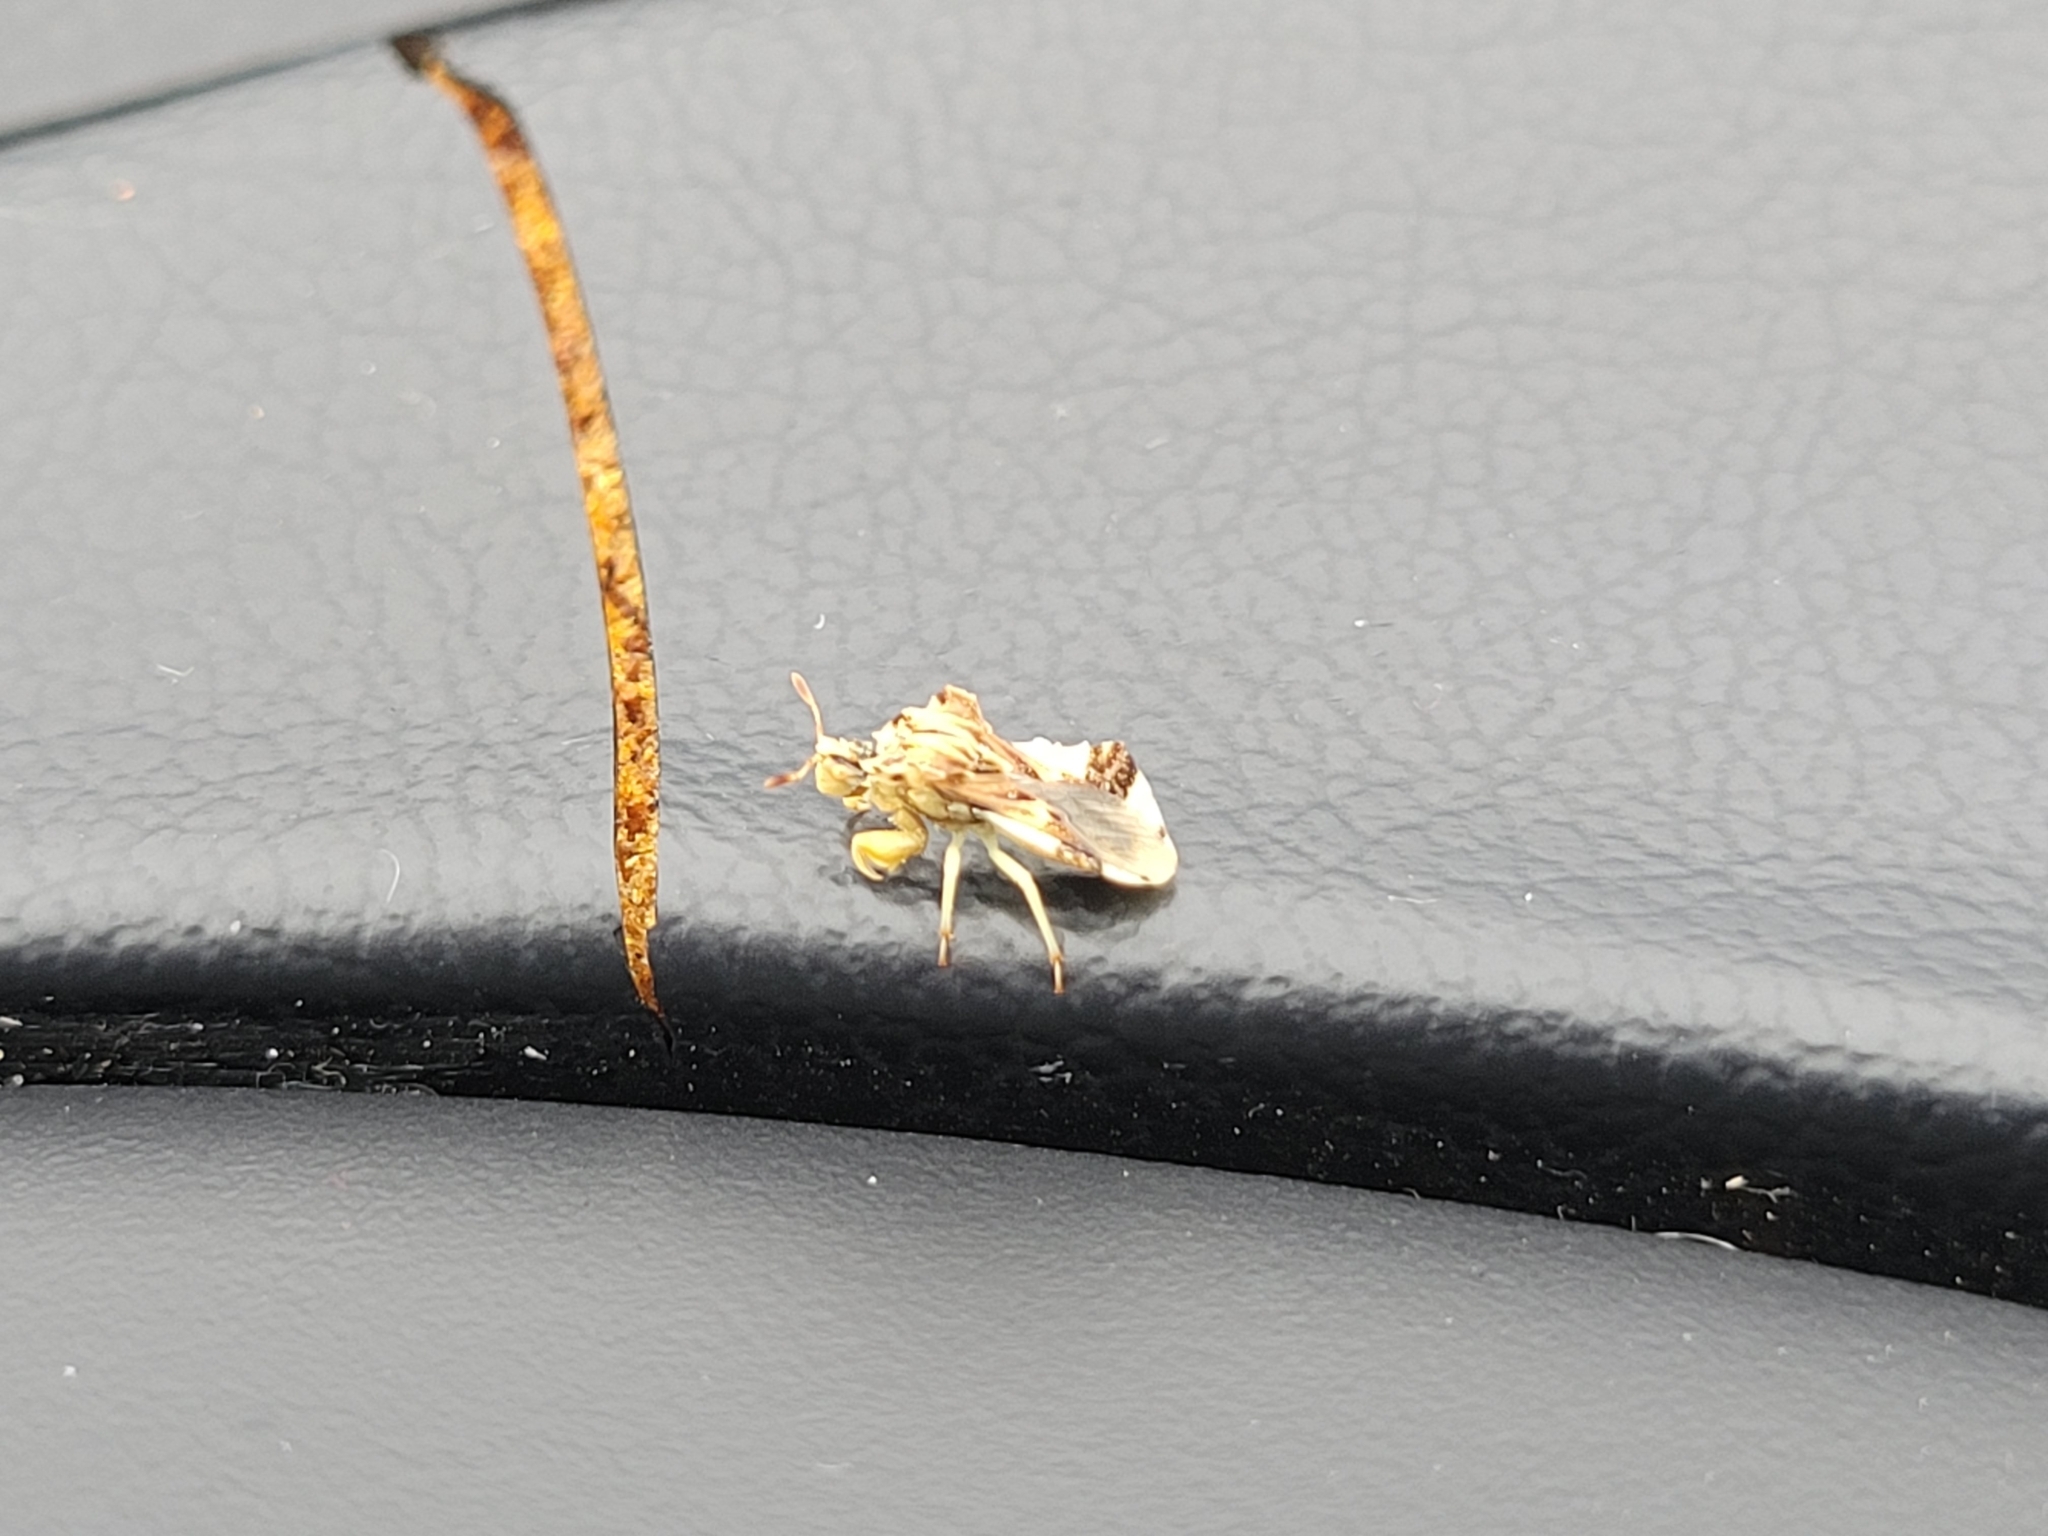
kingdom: Animalia
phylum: Arthropoda
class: Insecta
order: Hemiptera
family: Reduviidae
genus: Phymata
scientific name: Phymata fasciata
